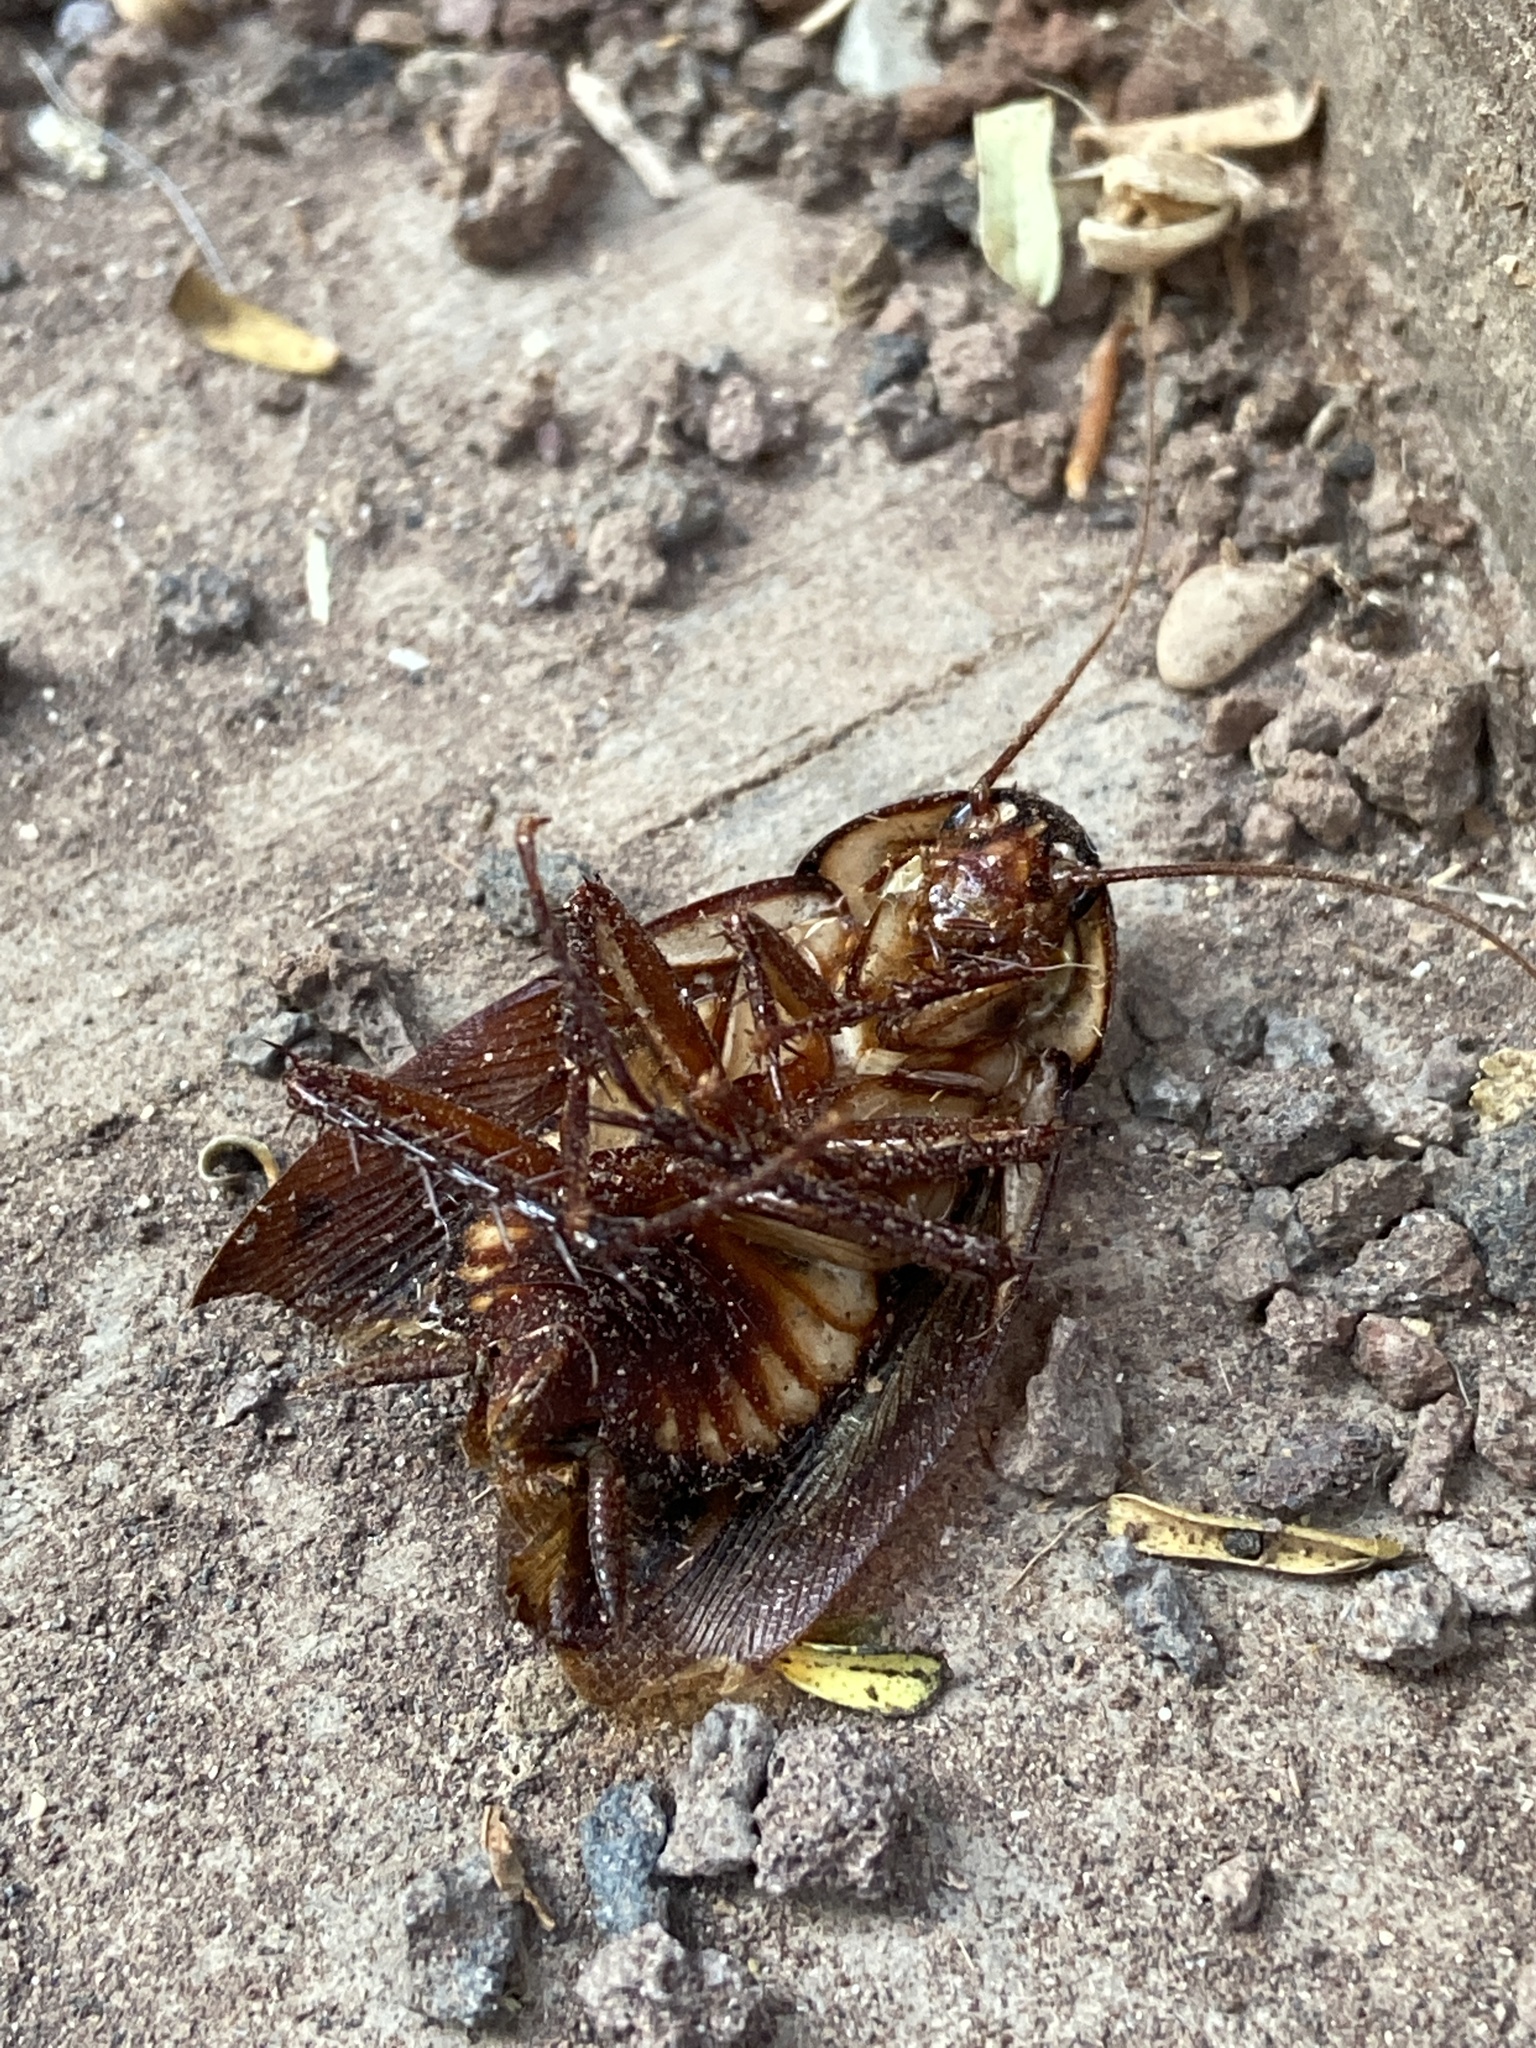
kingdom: Animalia
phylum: Arthropoda
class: Insecta
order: Blattodea
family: Blattidae
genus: Periplaneta
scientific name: Periplaneta australasiae
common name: Australian cockroach
